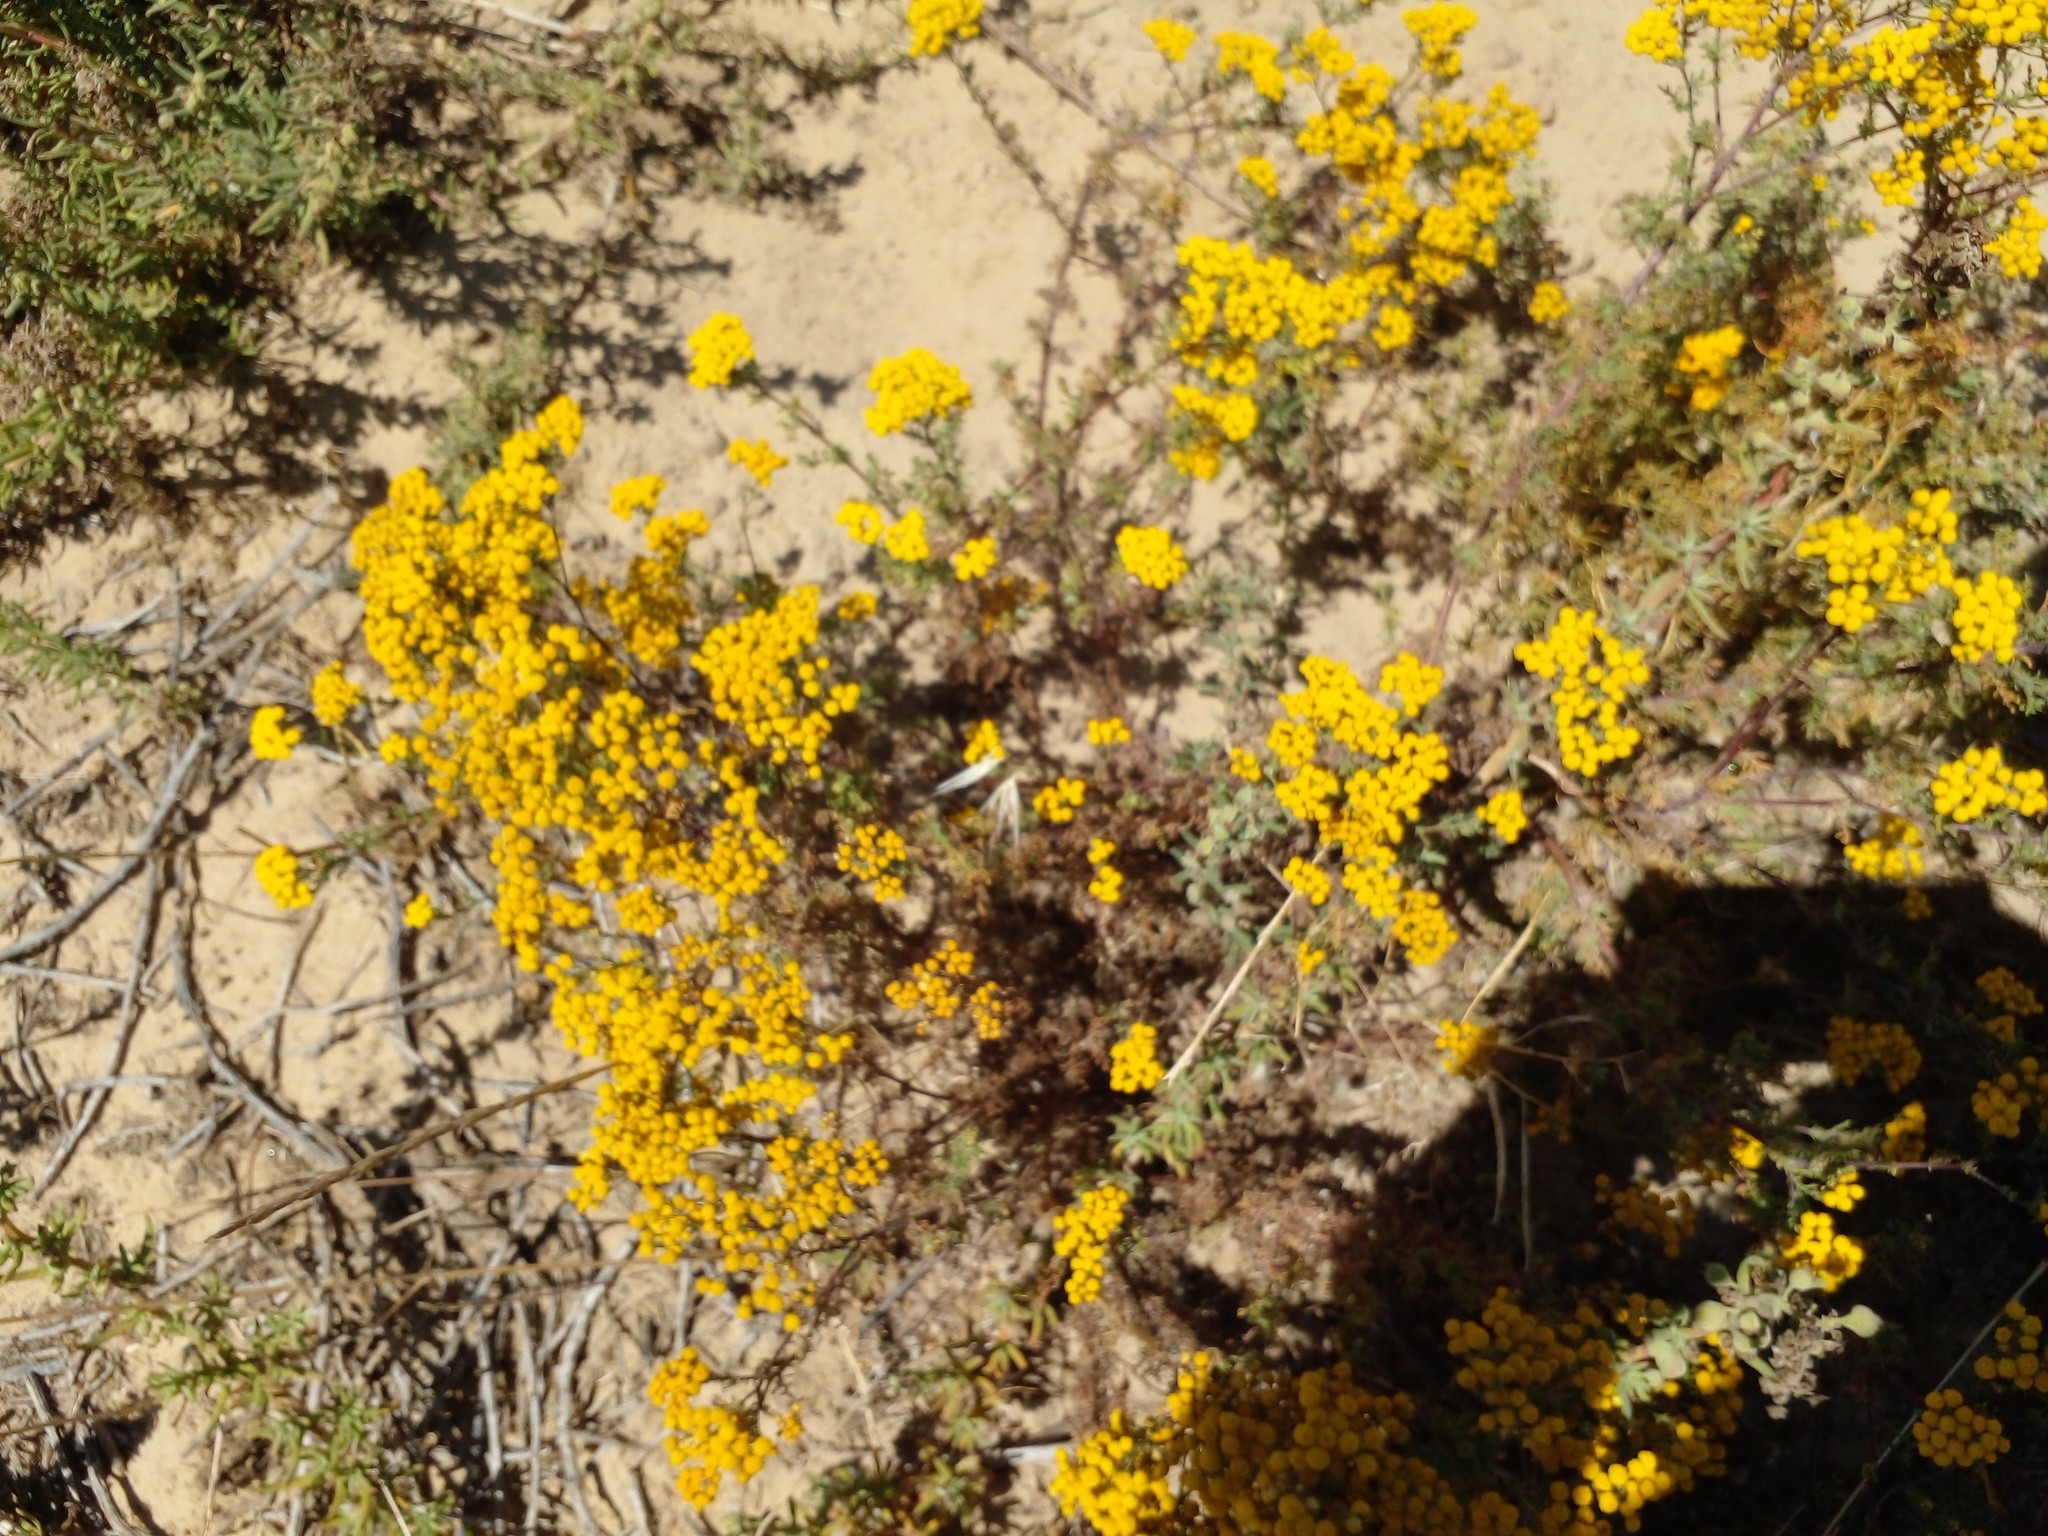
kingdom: Plantae
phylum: Tracheophyta
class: Magnoliopsida
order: Asterales
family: Asteraceae
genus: Oncosiphon
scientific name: Oncosiphon suffruticosus
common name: Shrubby mayweed
